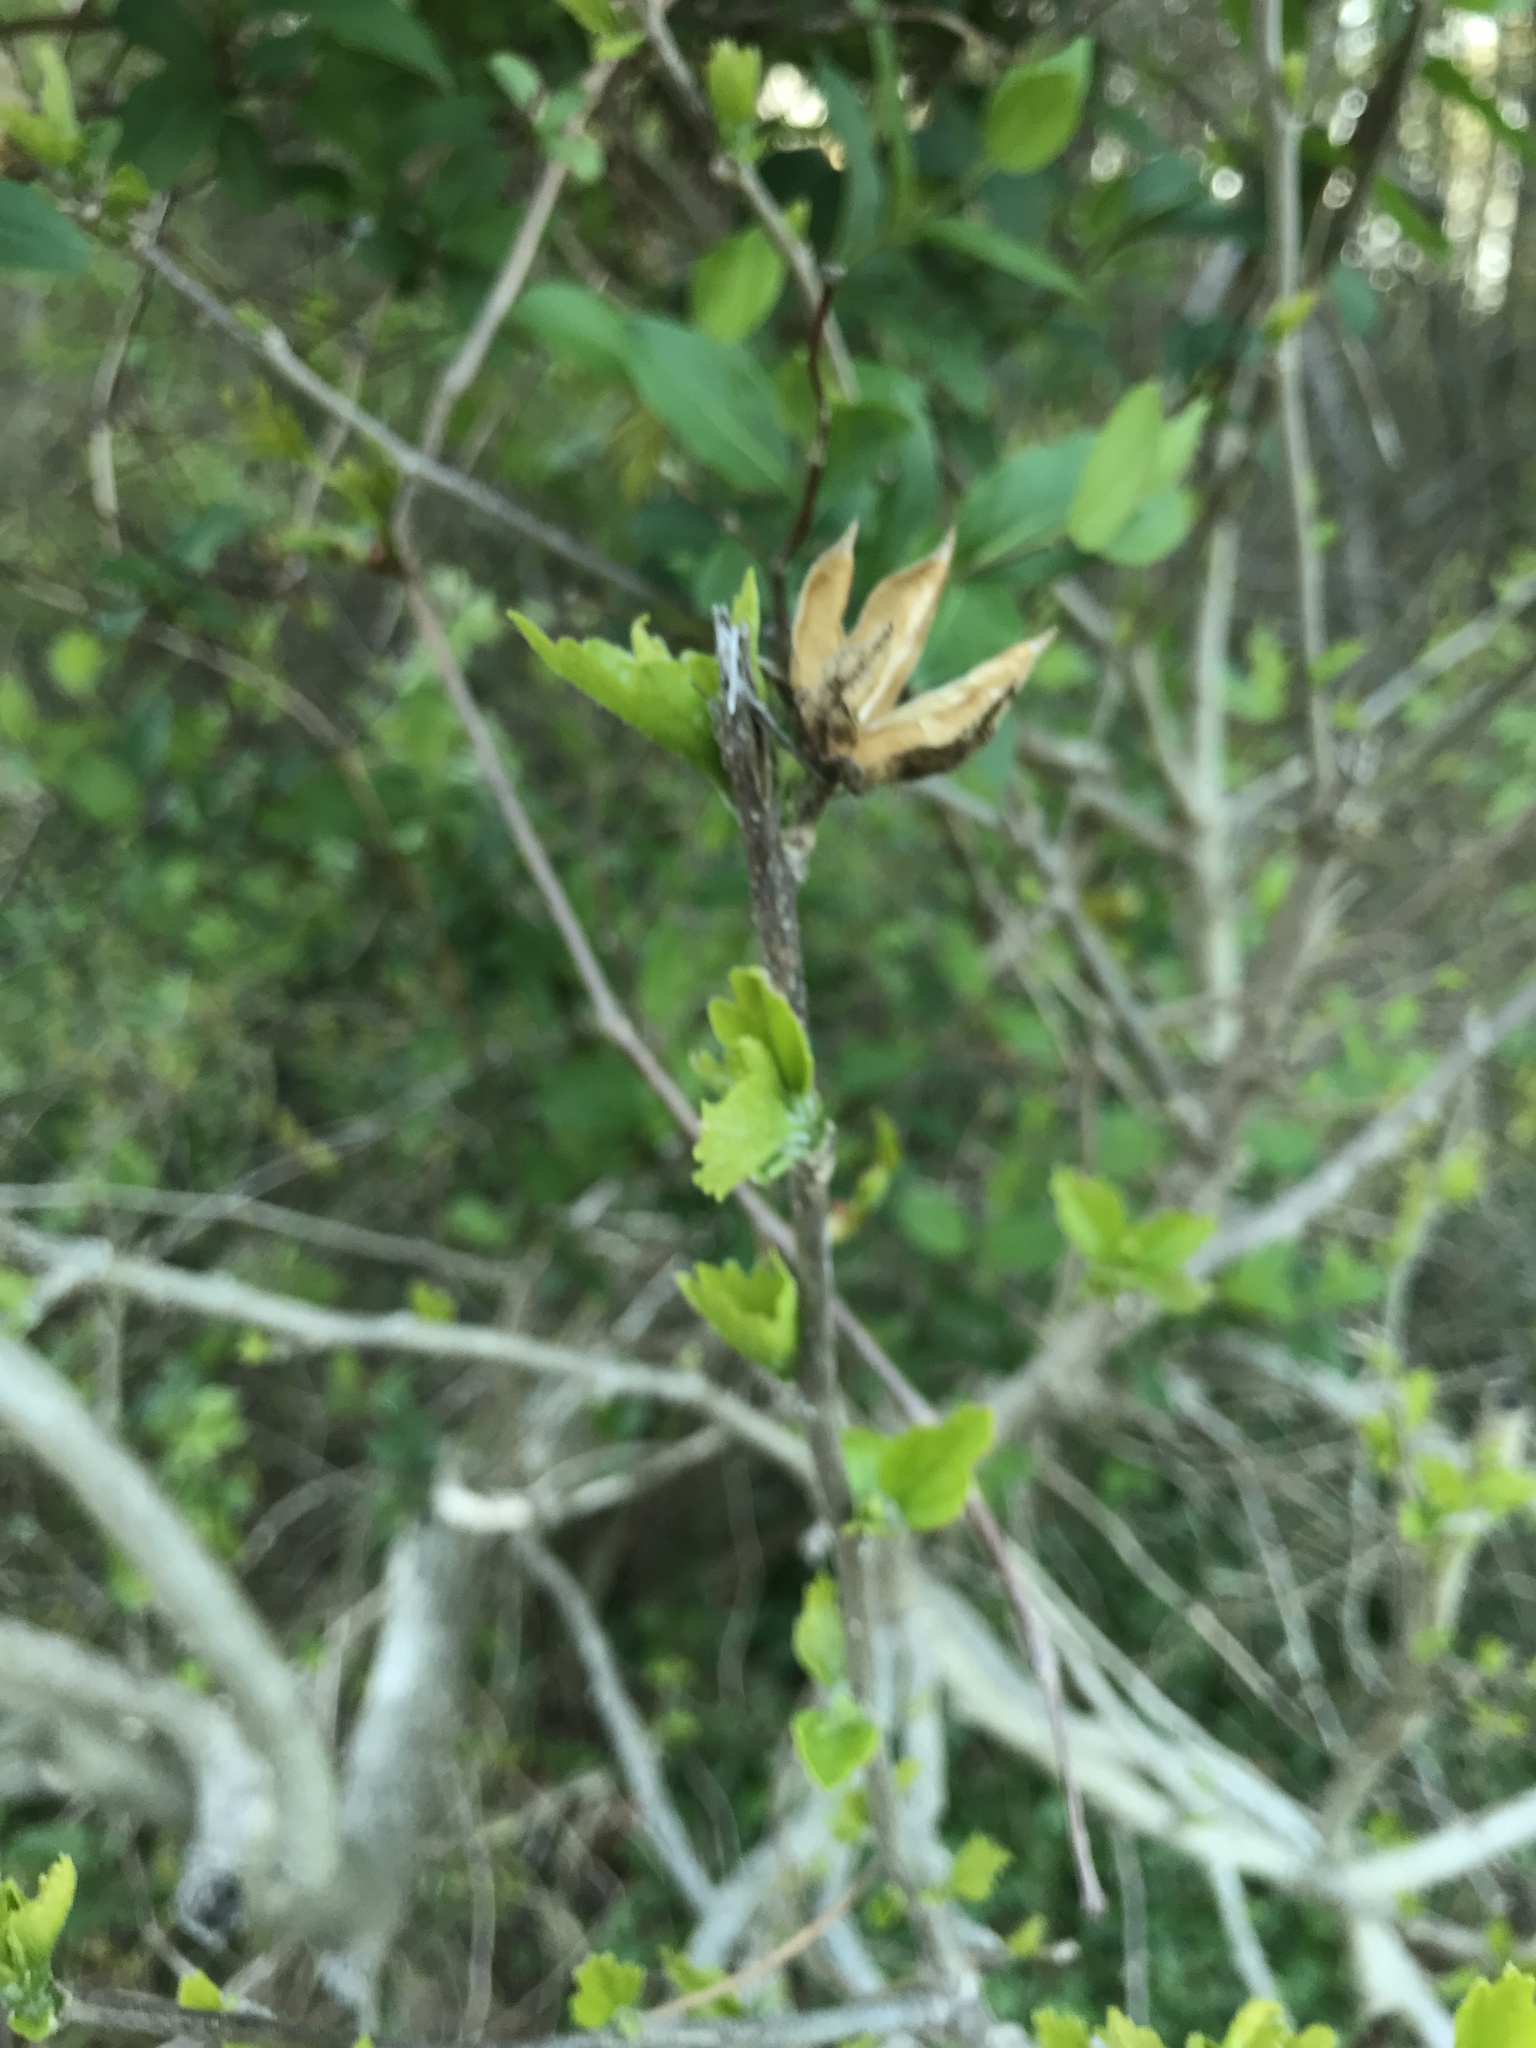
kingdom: Plantae
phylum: Tracheophyta
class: Magnoliopsida
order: Malvales
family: Malvaceae
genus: Hibiscus
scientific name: Hibiscus syriacus
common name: Syrian ketmia
